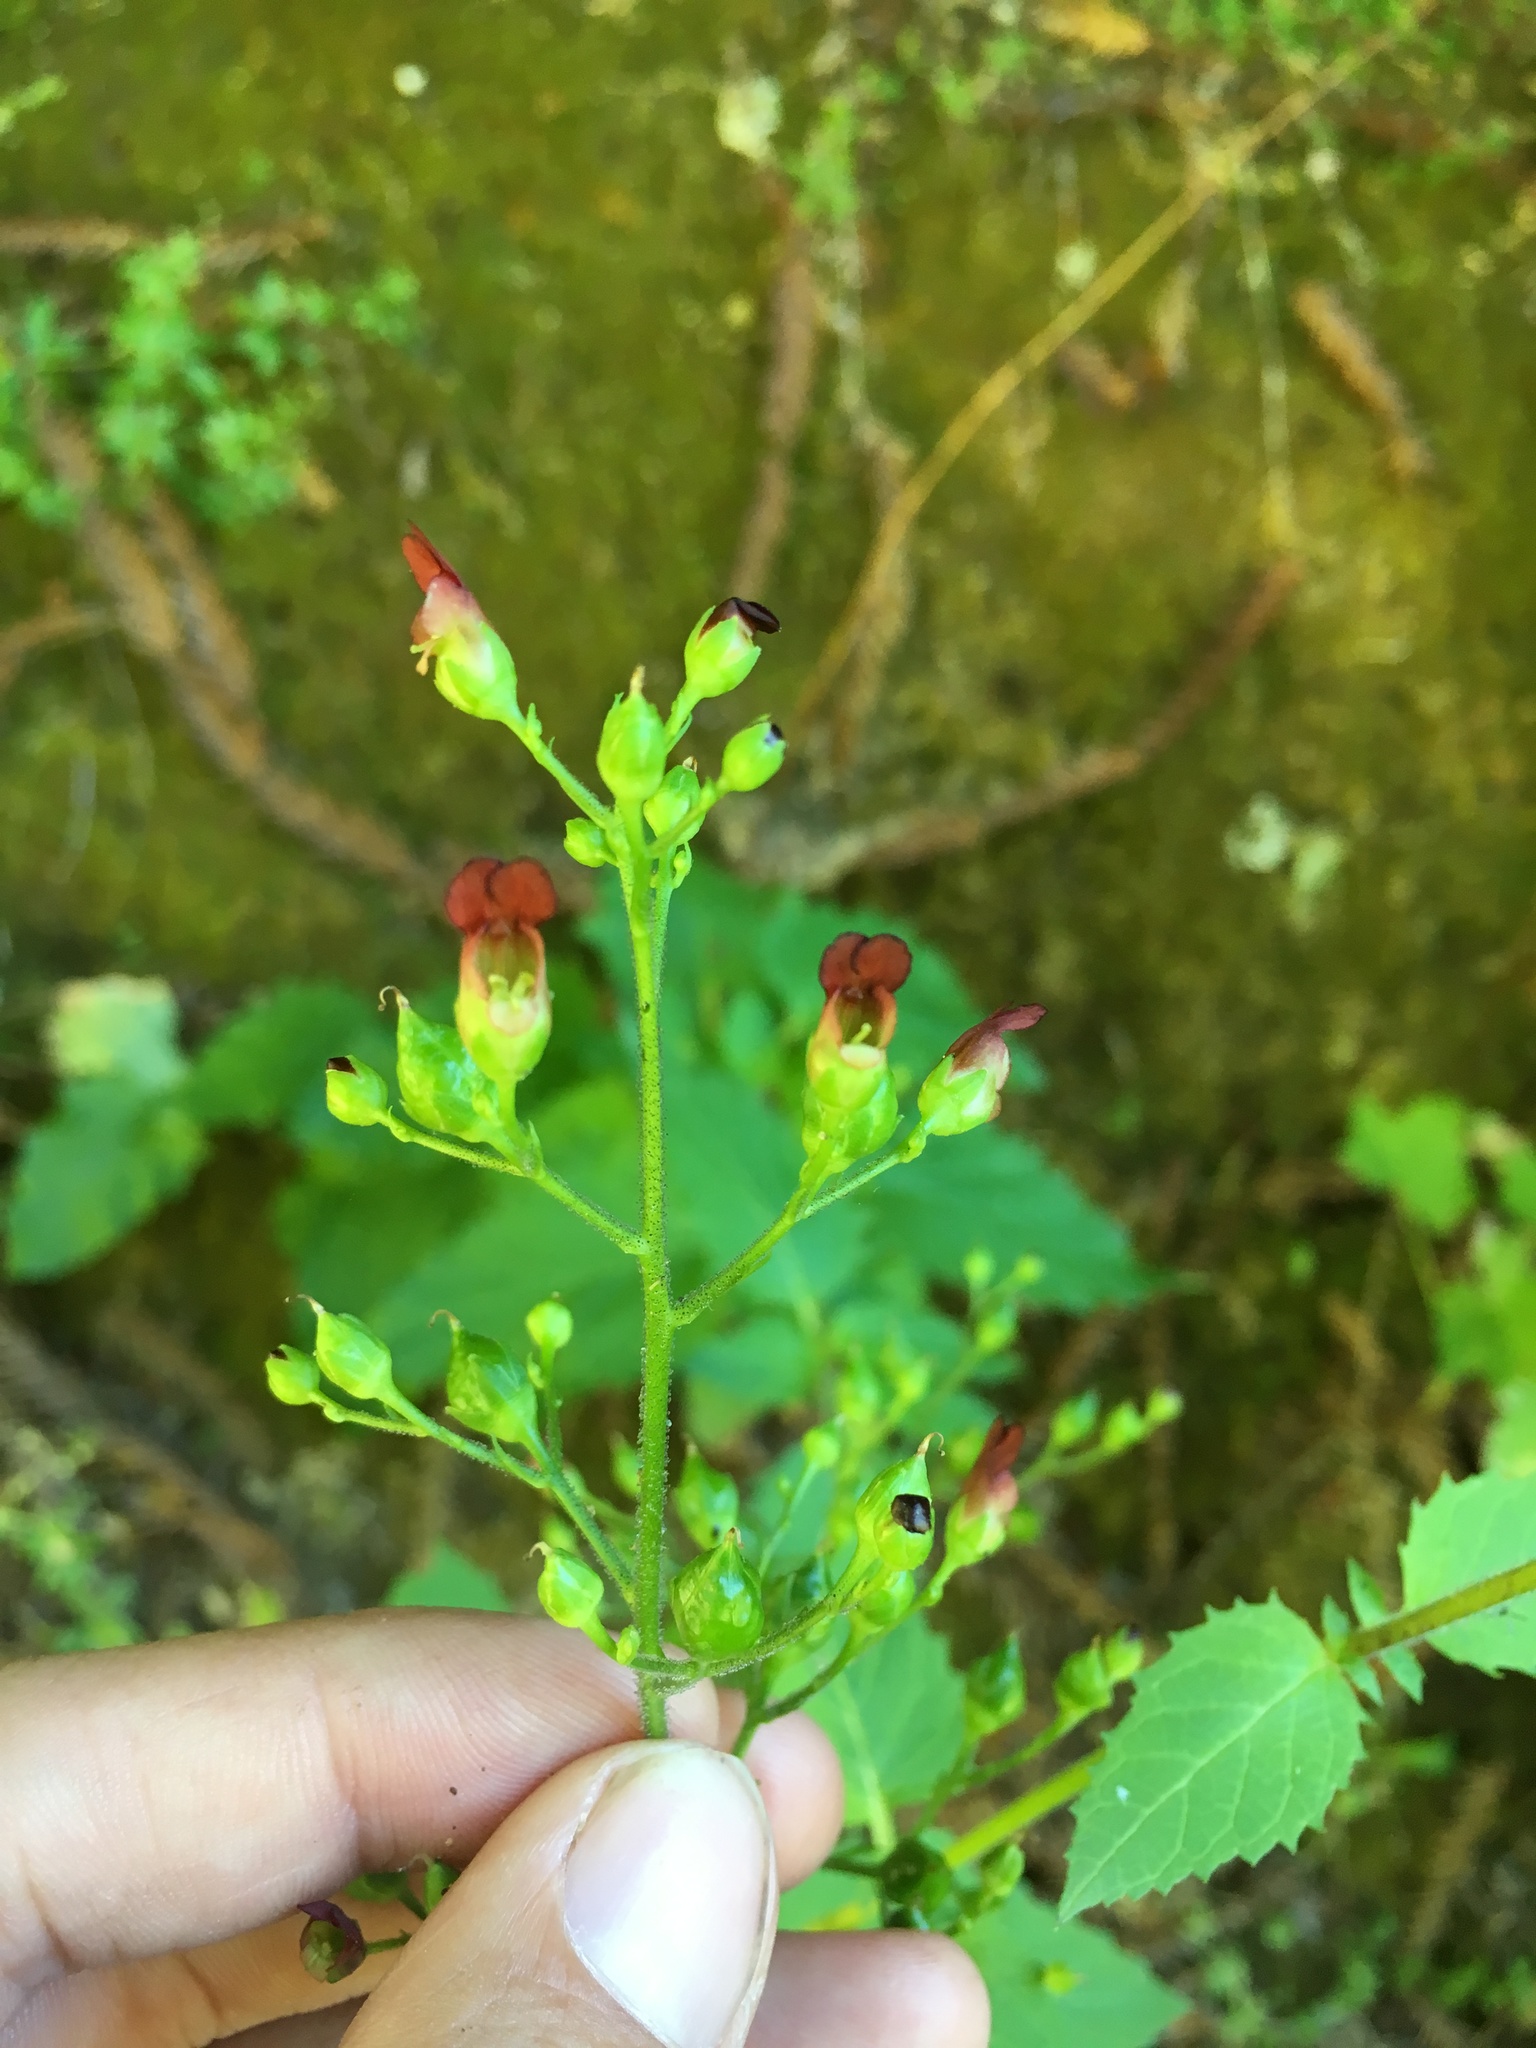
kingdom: Plantae
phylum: Tracheophyta
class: Magnoliopsida
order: Lamiales
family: Scrophulariaceae
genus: Scrophularia
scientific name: Scrophularia californica
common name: California figwort
